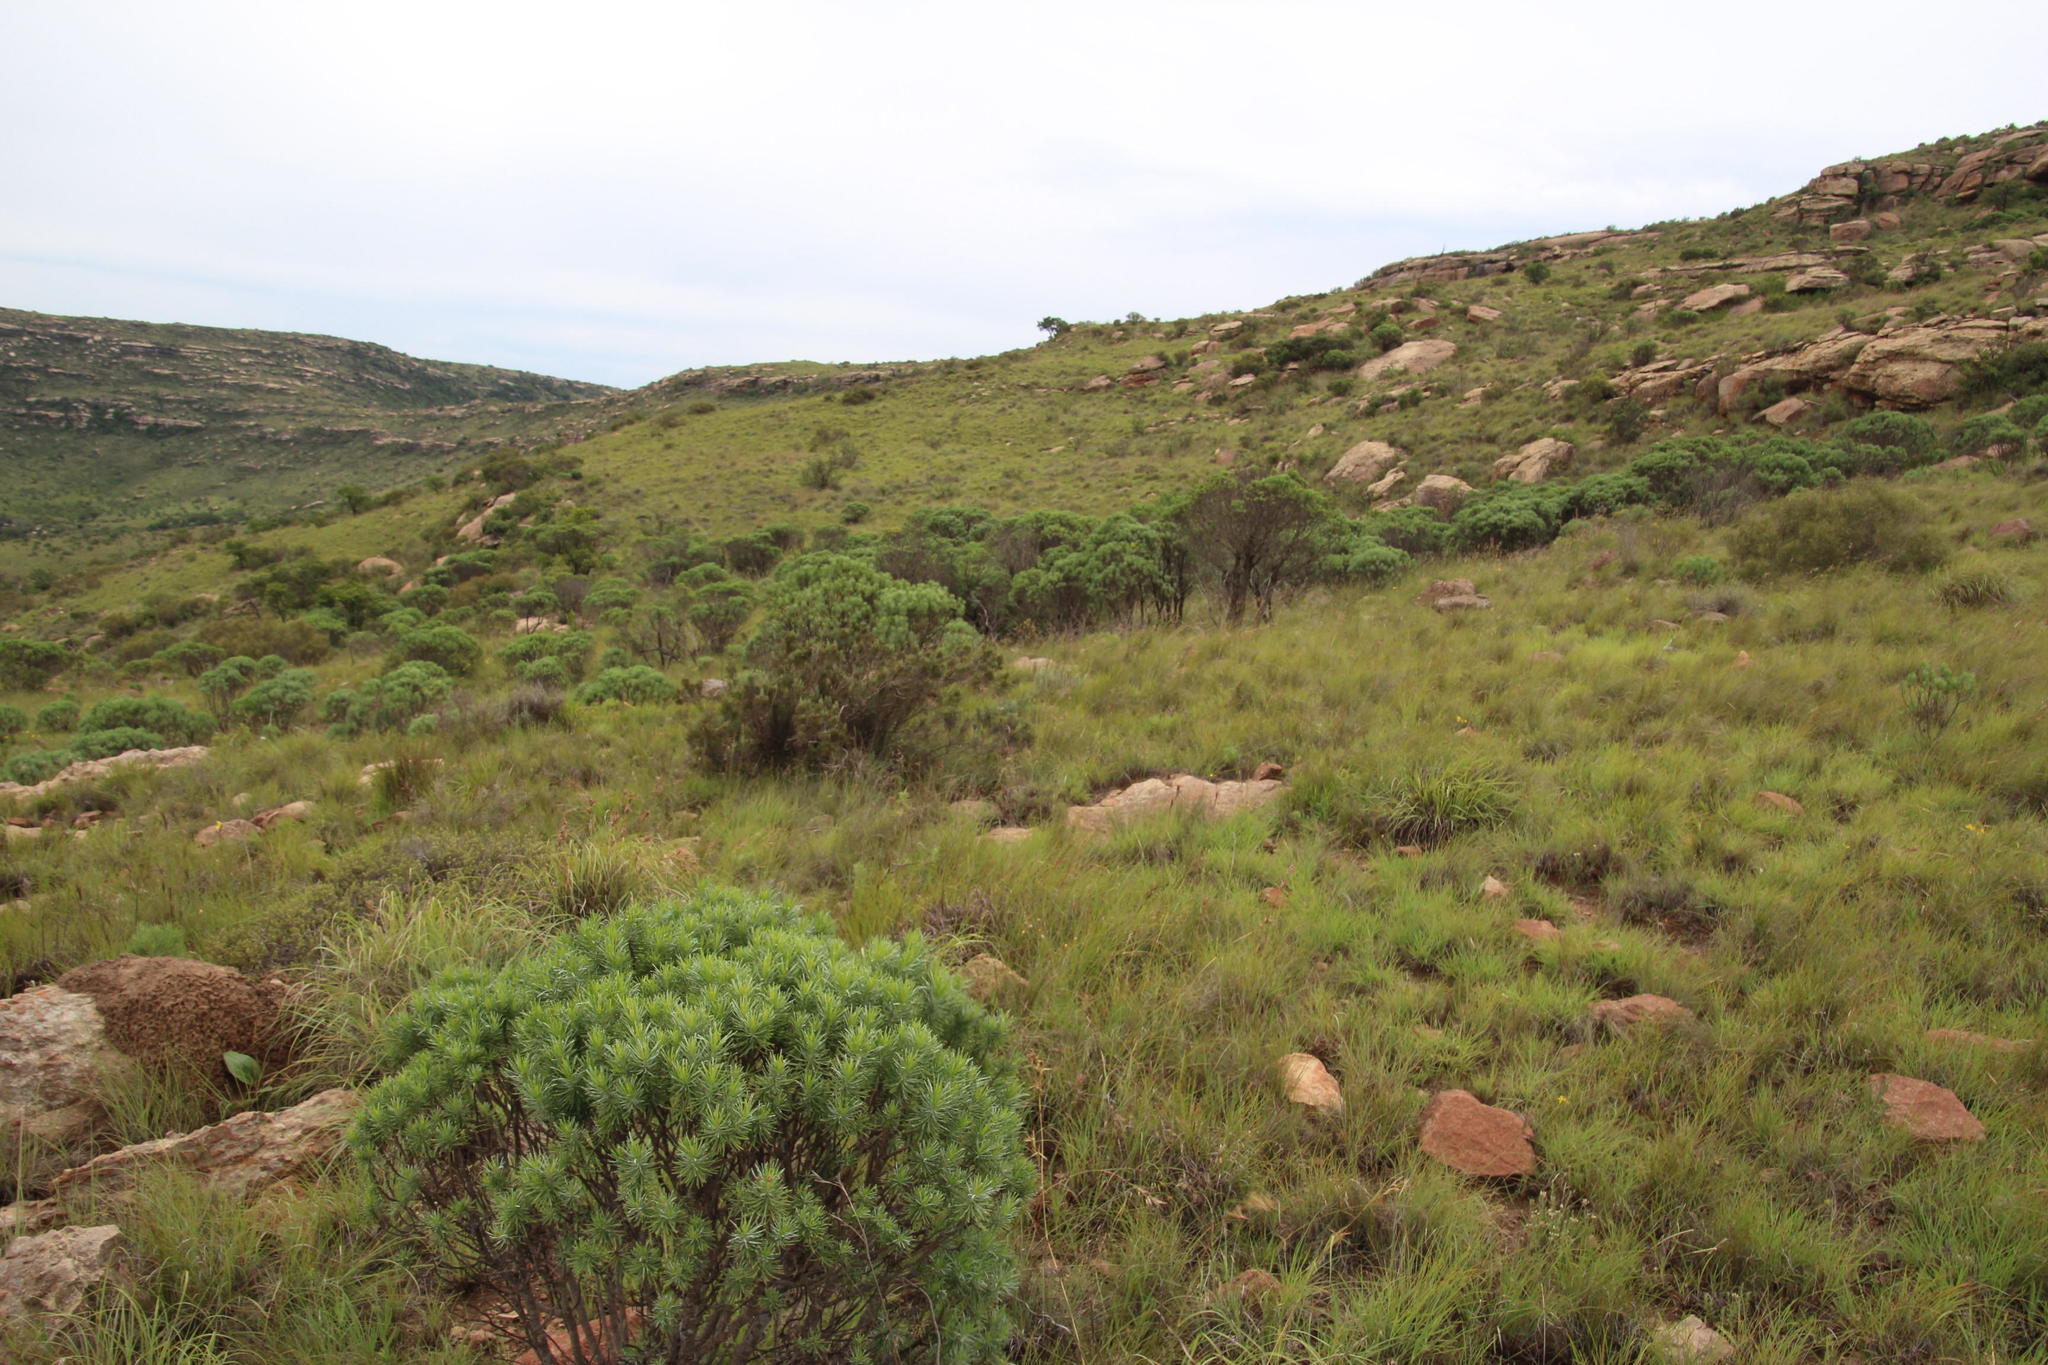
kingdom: Plantae
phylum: Tracheophyta
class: Liliopsida
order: Poales
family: Poaceae
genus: Elionurus
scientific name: Elionurus muticus
